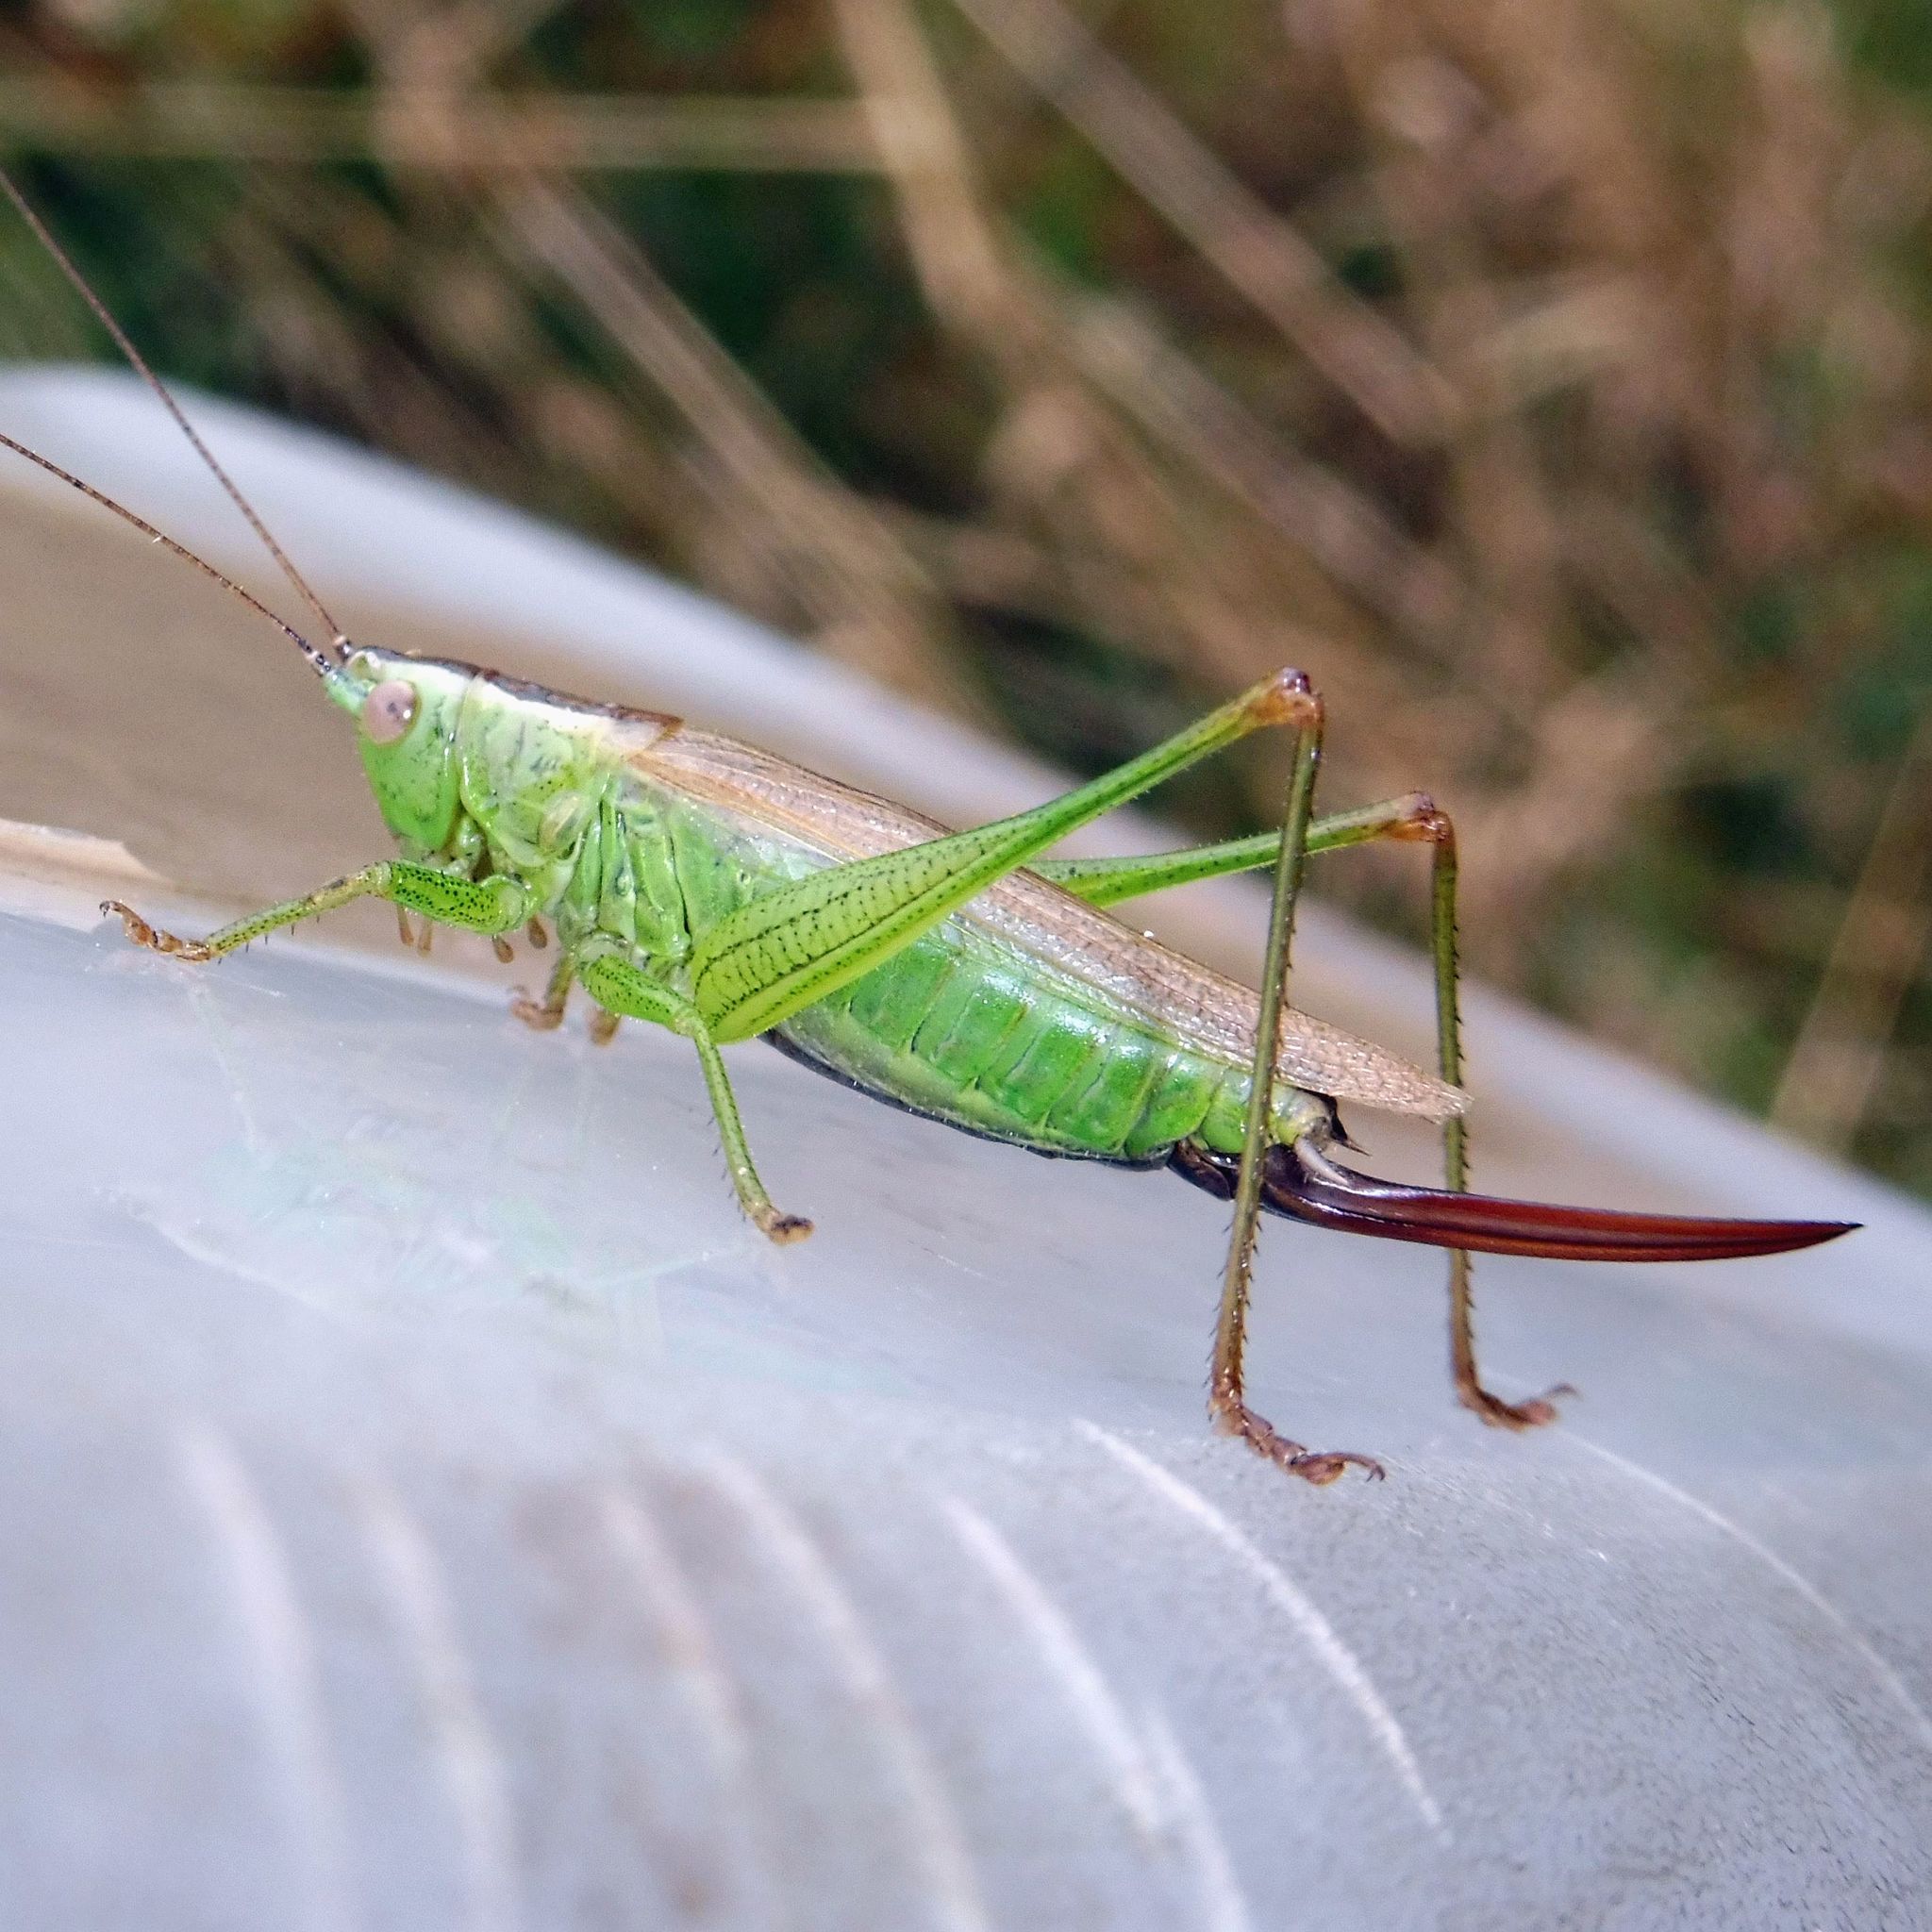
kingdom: Animalia
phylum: Arthropoda
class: Insecta
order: Orthoptera
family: Tettigoniidae
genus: Conocephalus
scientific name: Conocephalus fuscus
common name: Long-winged conehead
